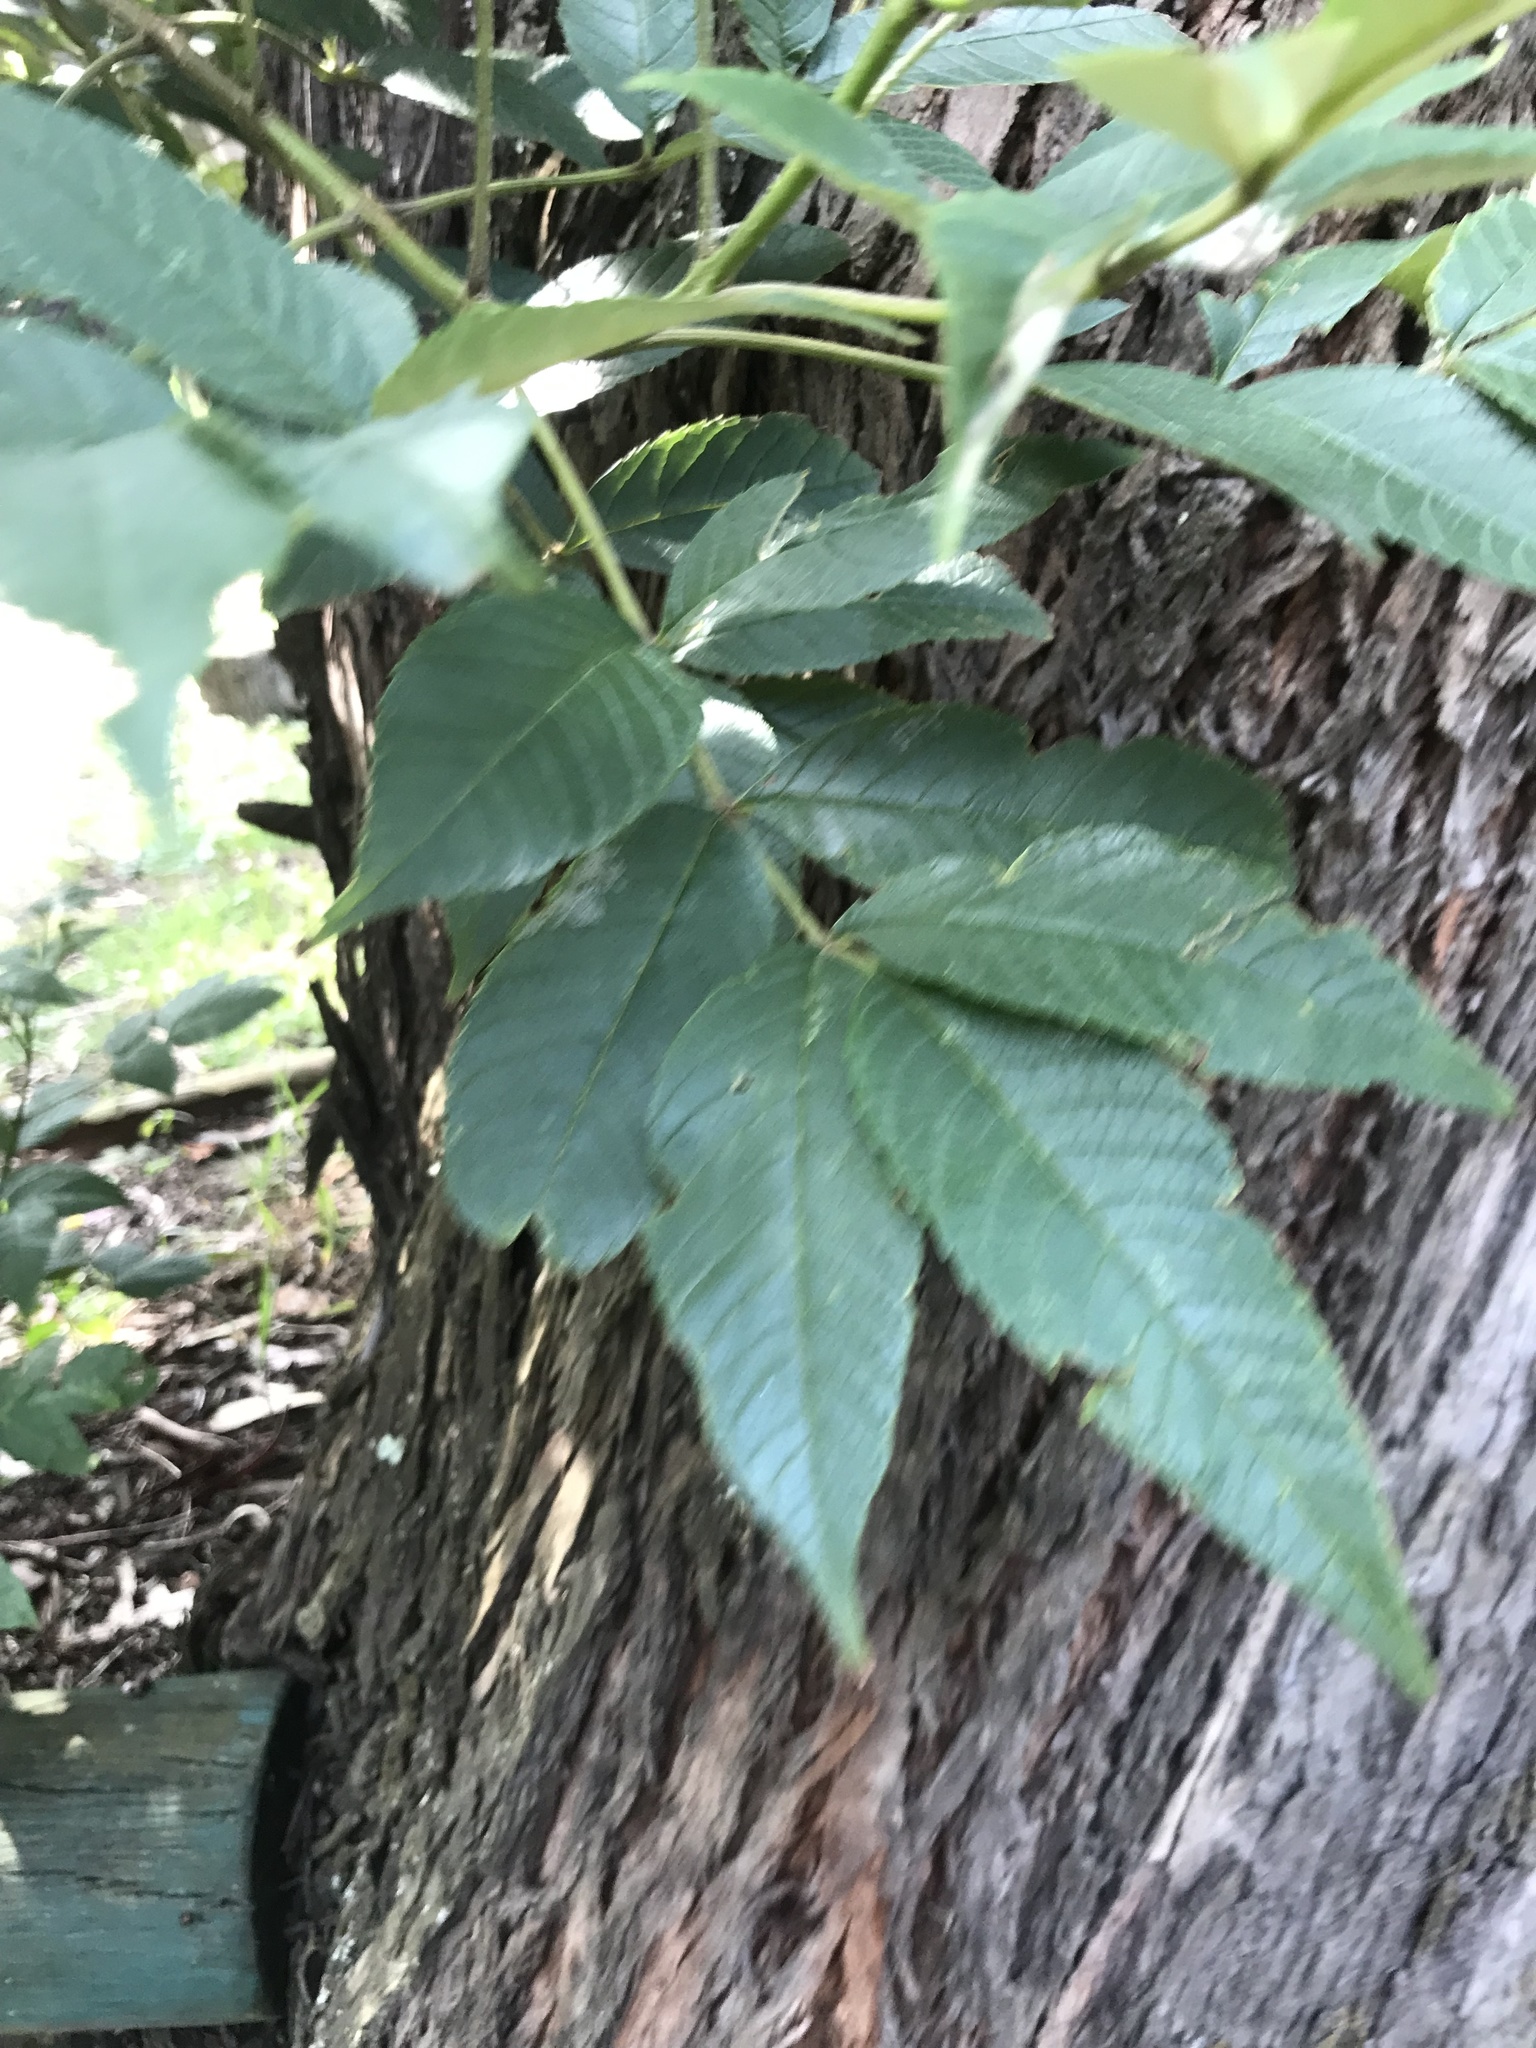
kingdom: Plantae
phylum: Tracheophyta
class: Magnoliopsida
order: Lamiales
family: Bignoniaceae
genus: Tecoma
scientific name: Tecoma stans
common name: Yellow trumpetbush
